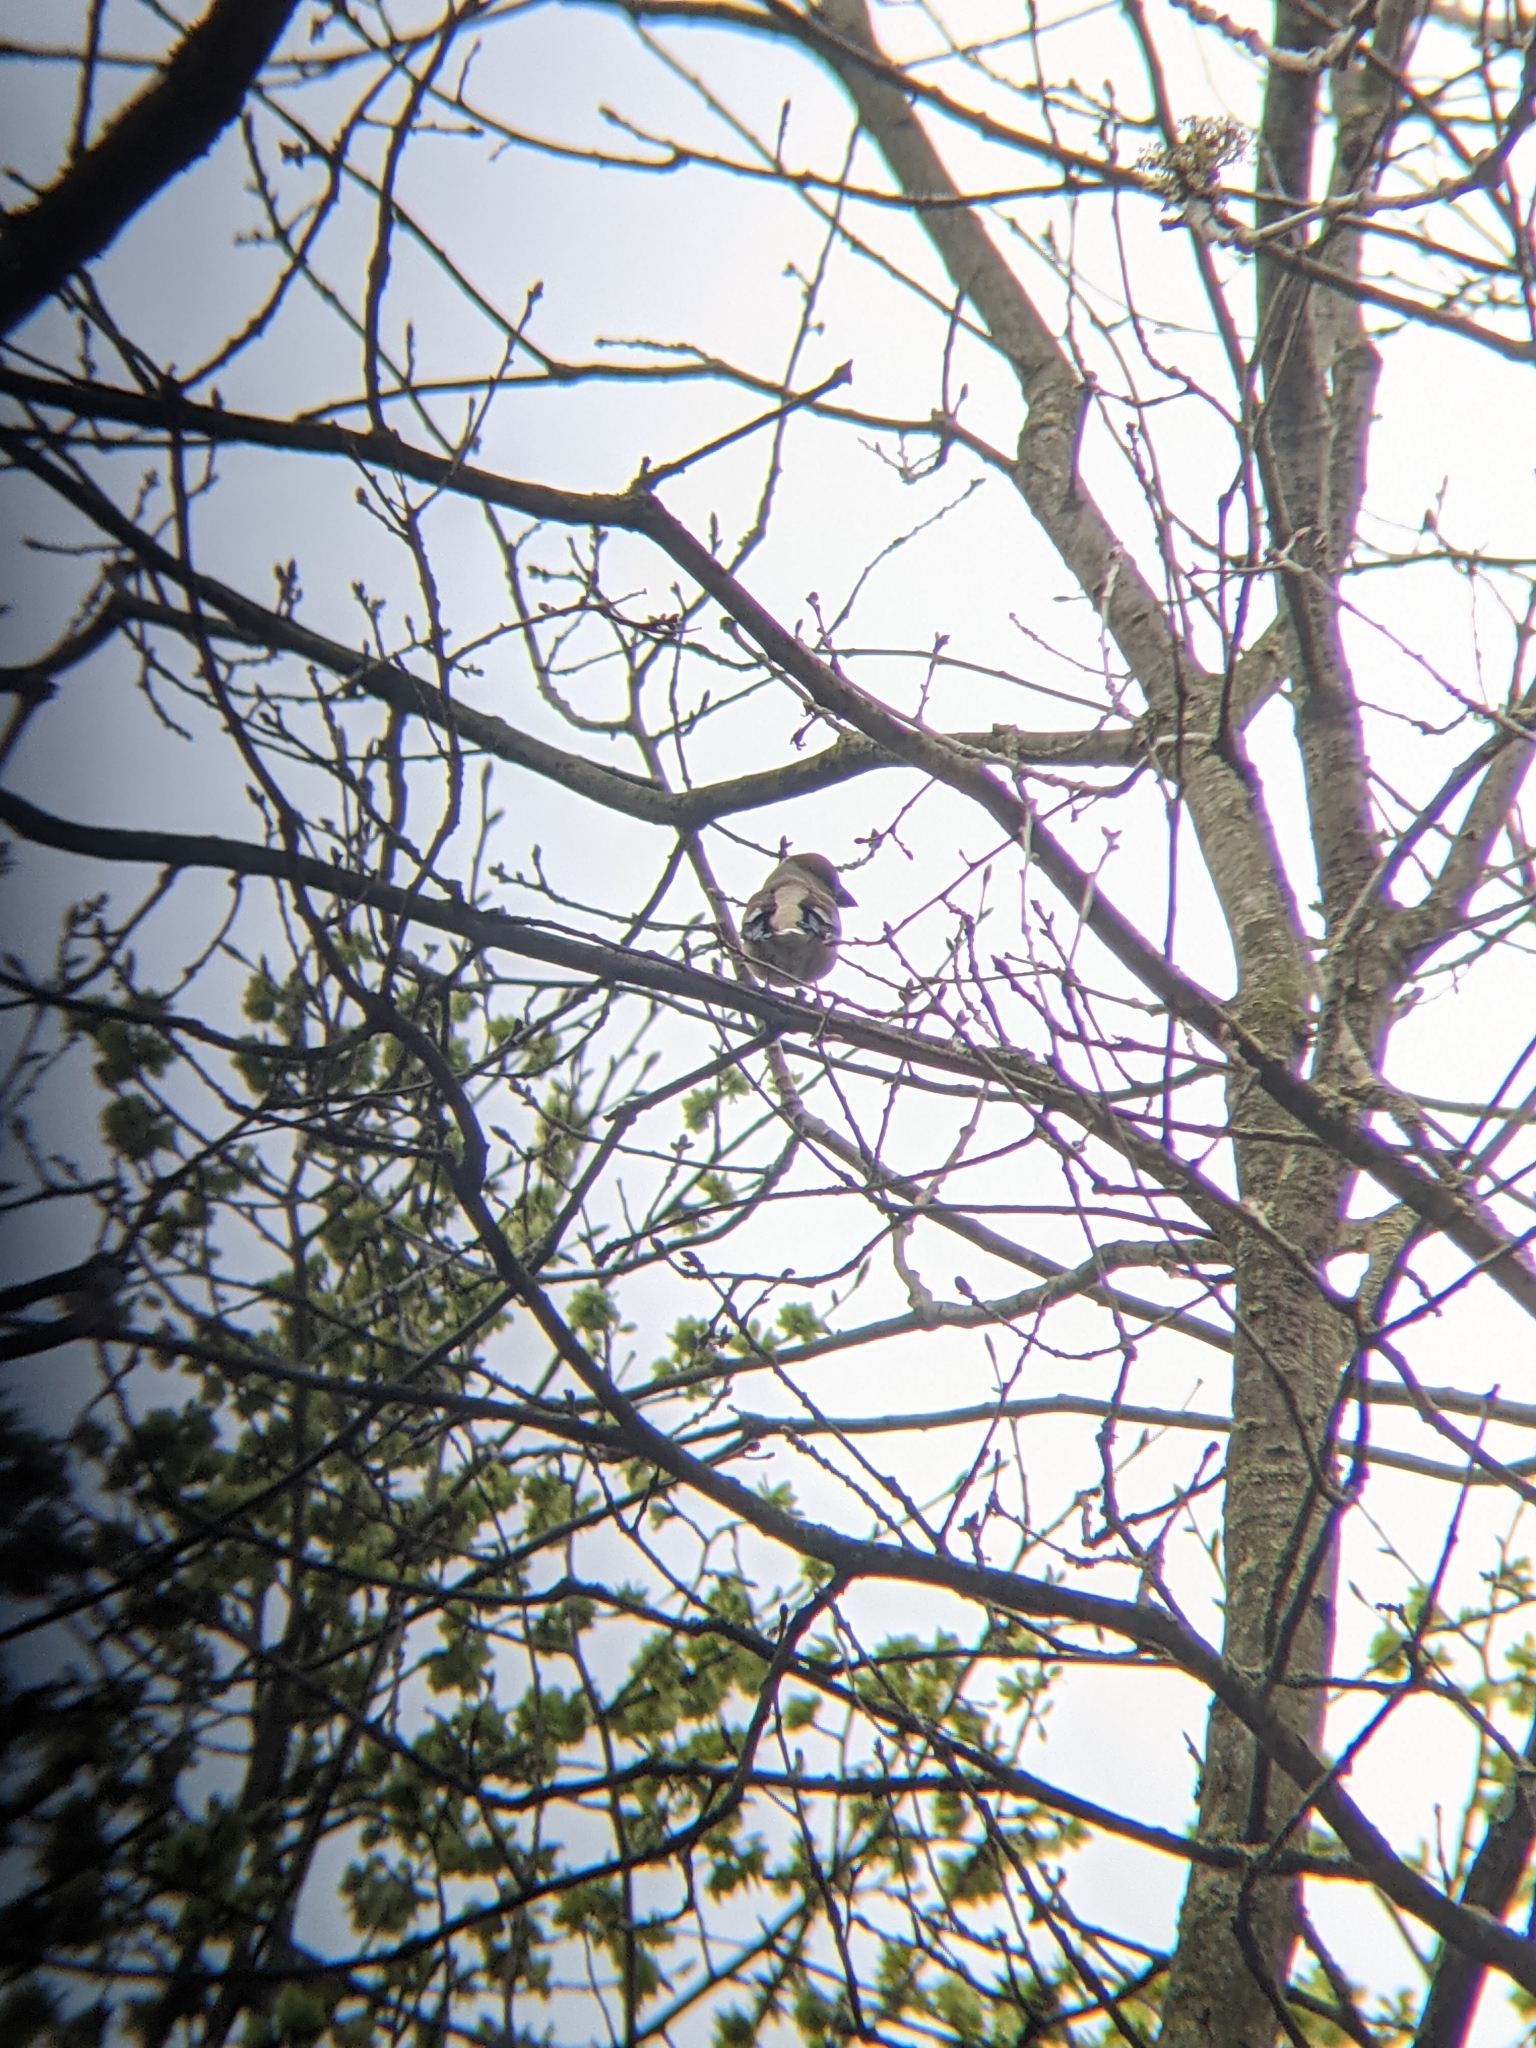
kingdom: Animalia
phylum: Chordata
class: Aves
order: Passeriformes
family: Fringillidae
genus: Coccothraustes
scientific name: Coccothraustes coccothraustes
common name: Hawfinch
